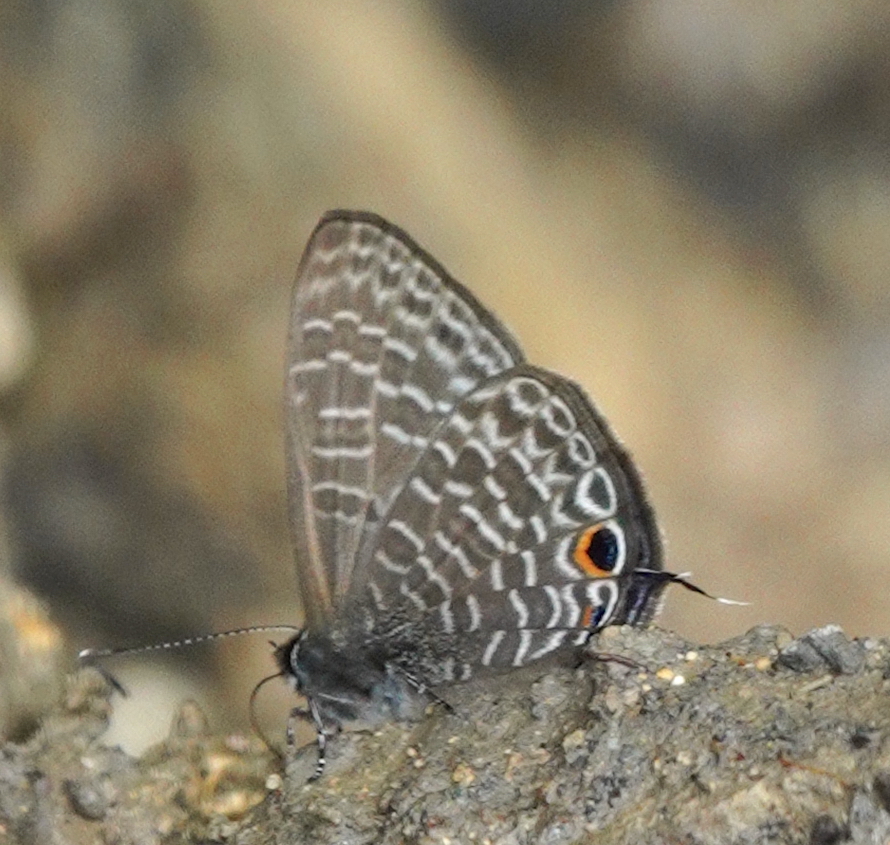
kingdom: Animalia
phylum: Arthropoda
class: Insecta
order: Lepidoptera
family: Lycaenidae
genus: Nacaduba
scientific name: Nacaduba major
